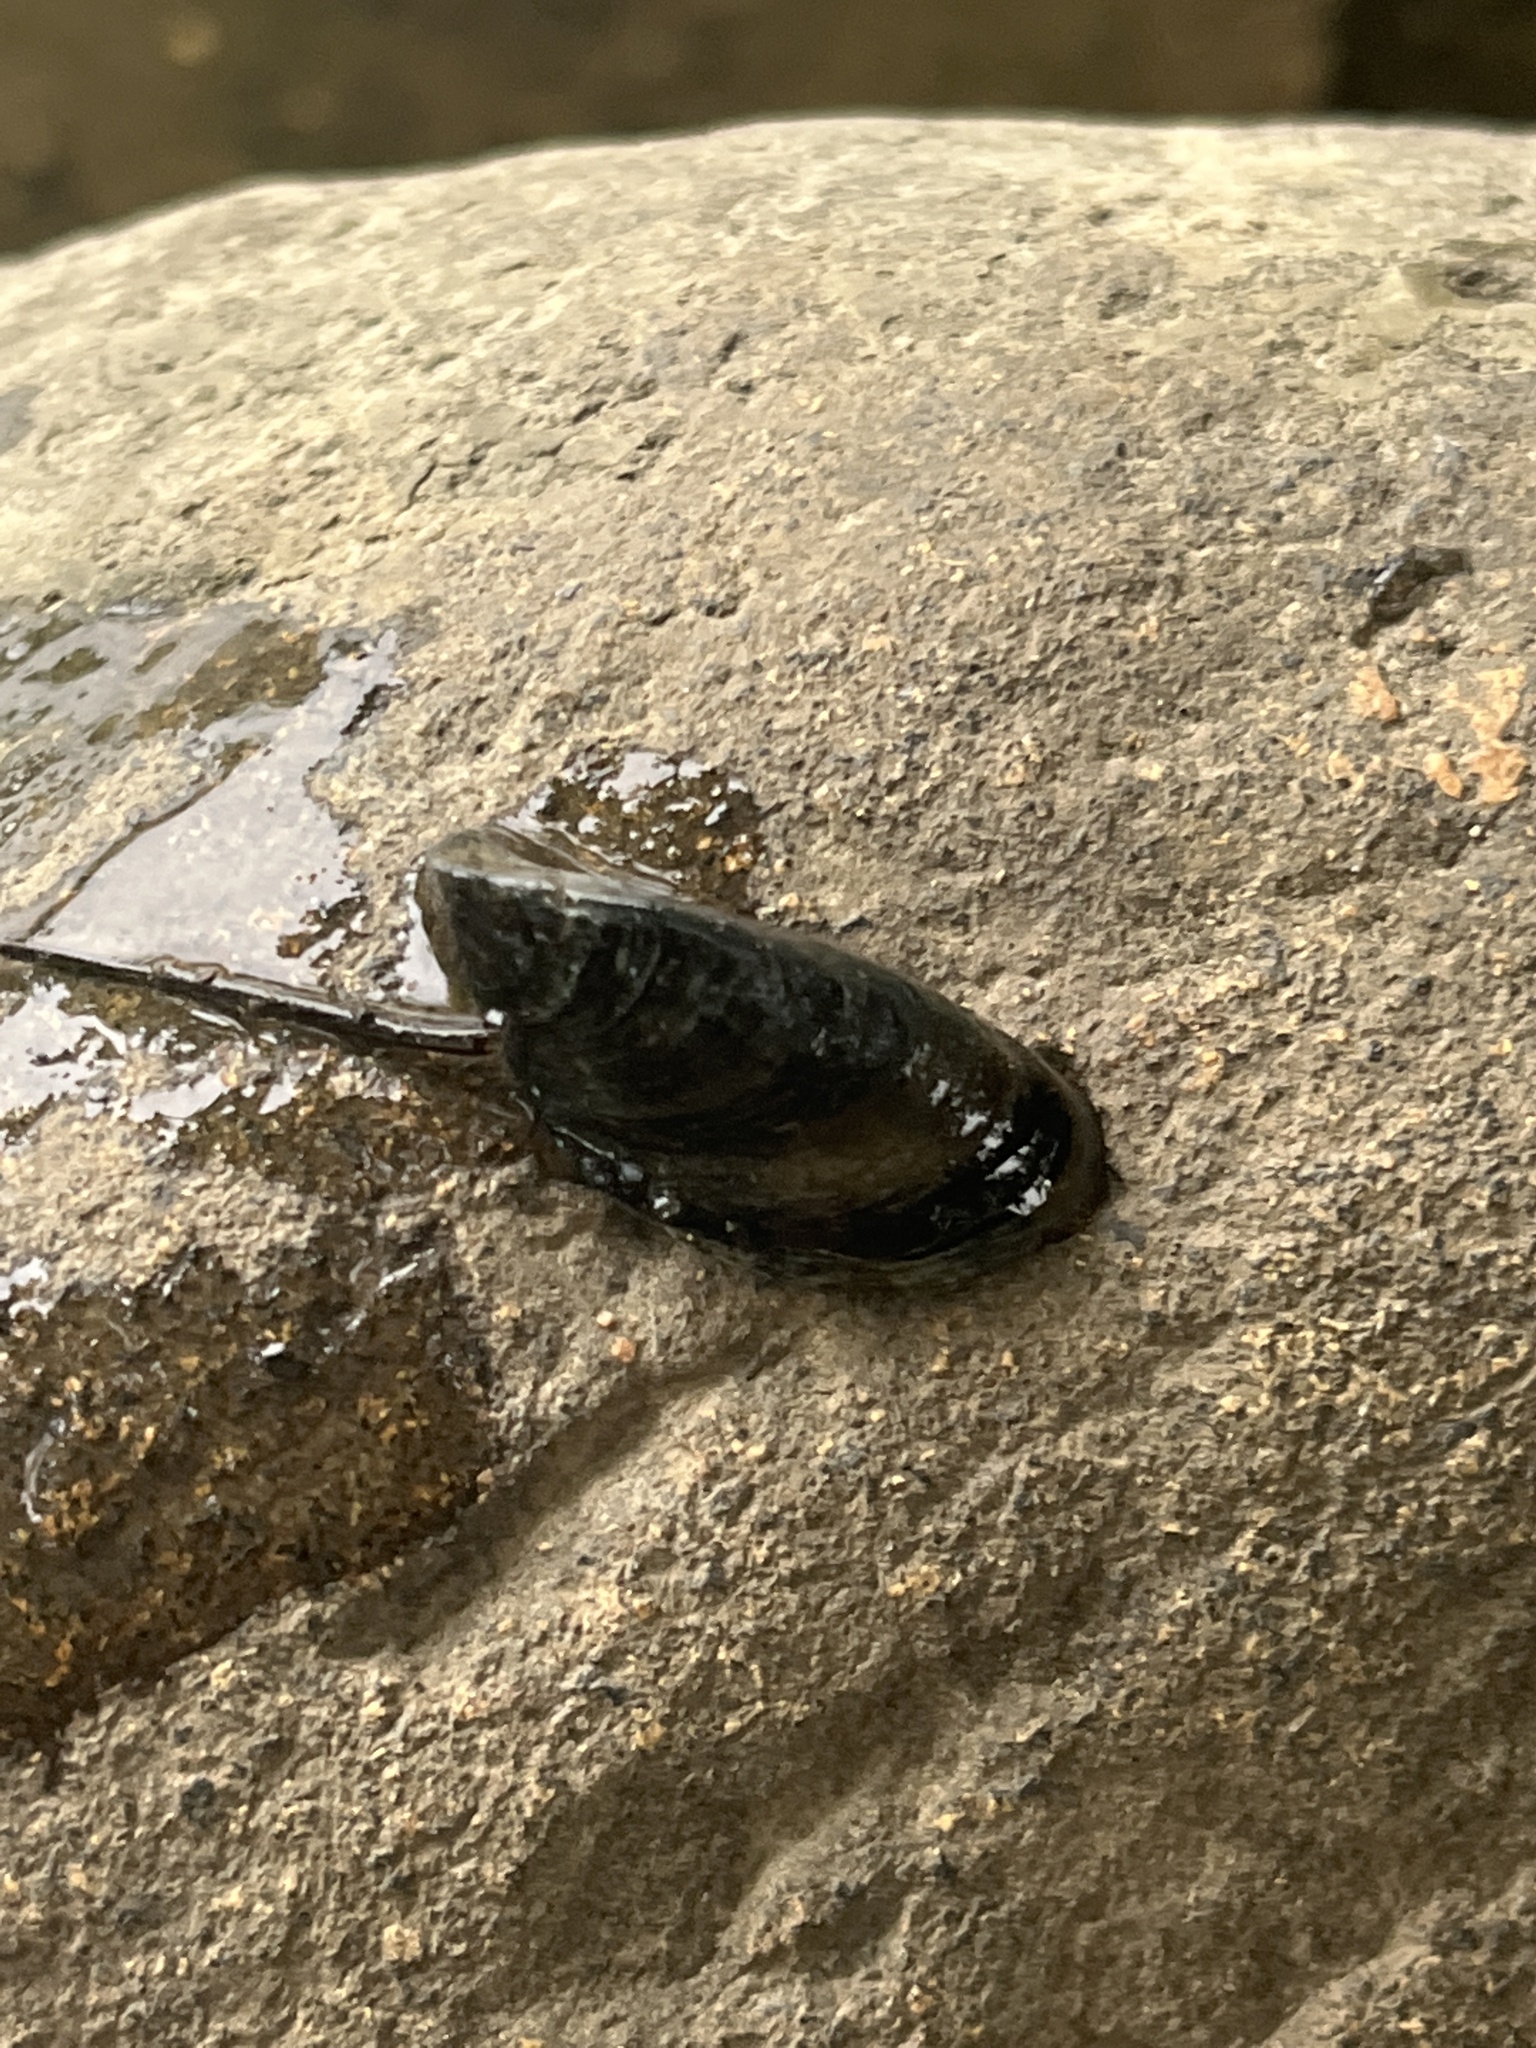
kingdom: Animalia
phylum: Mollusca
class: Bivalvia
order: Myida
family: Dreissenidae
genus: Dreissena
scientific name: Dreissena polymorpha
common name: Zebra mussel
